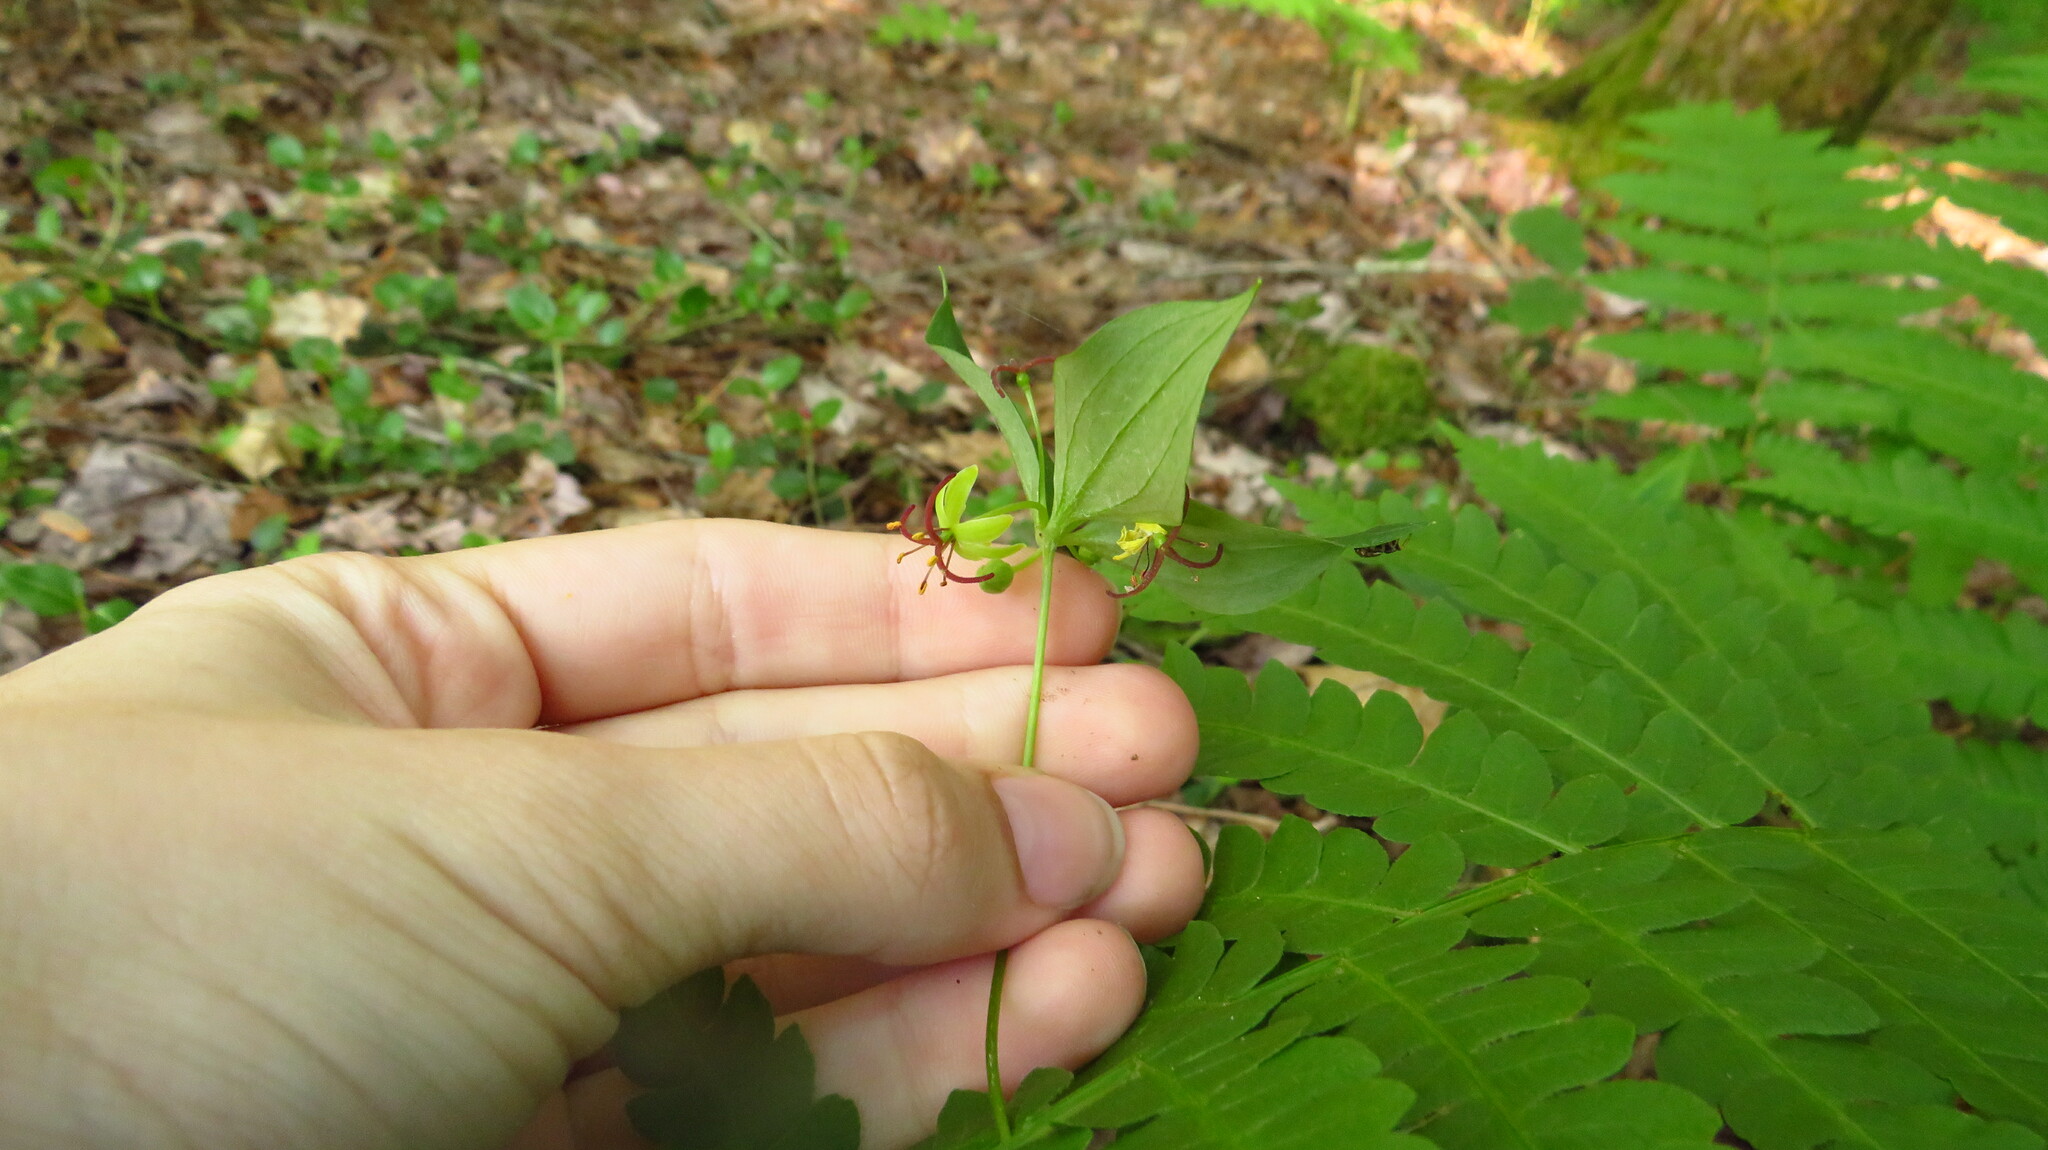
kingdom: Plantae
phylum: Tracheophyta
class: Liliopsida
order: Liliales
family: Liliaceae
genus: Medeola
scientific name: Medeola virginiana
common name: Indian cucumber-root
